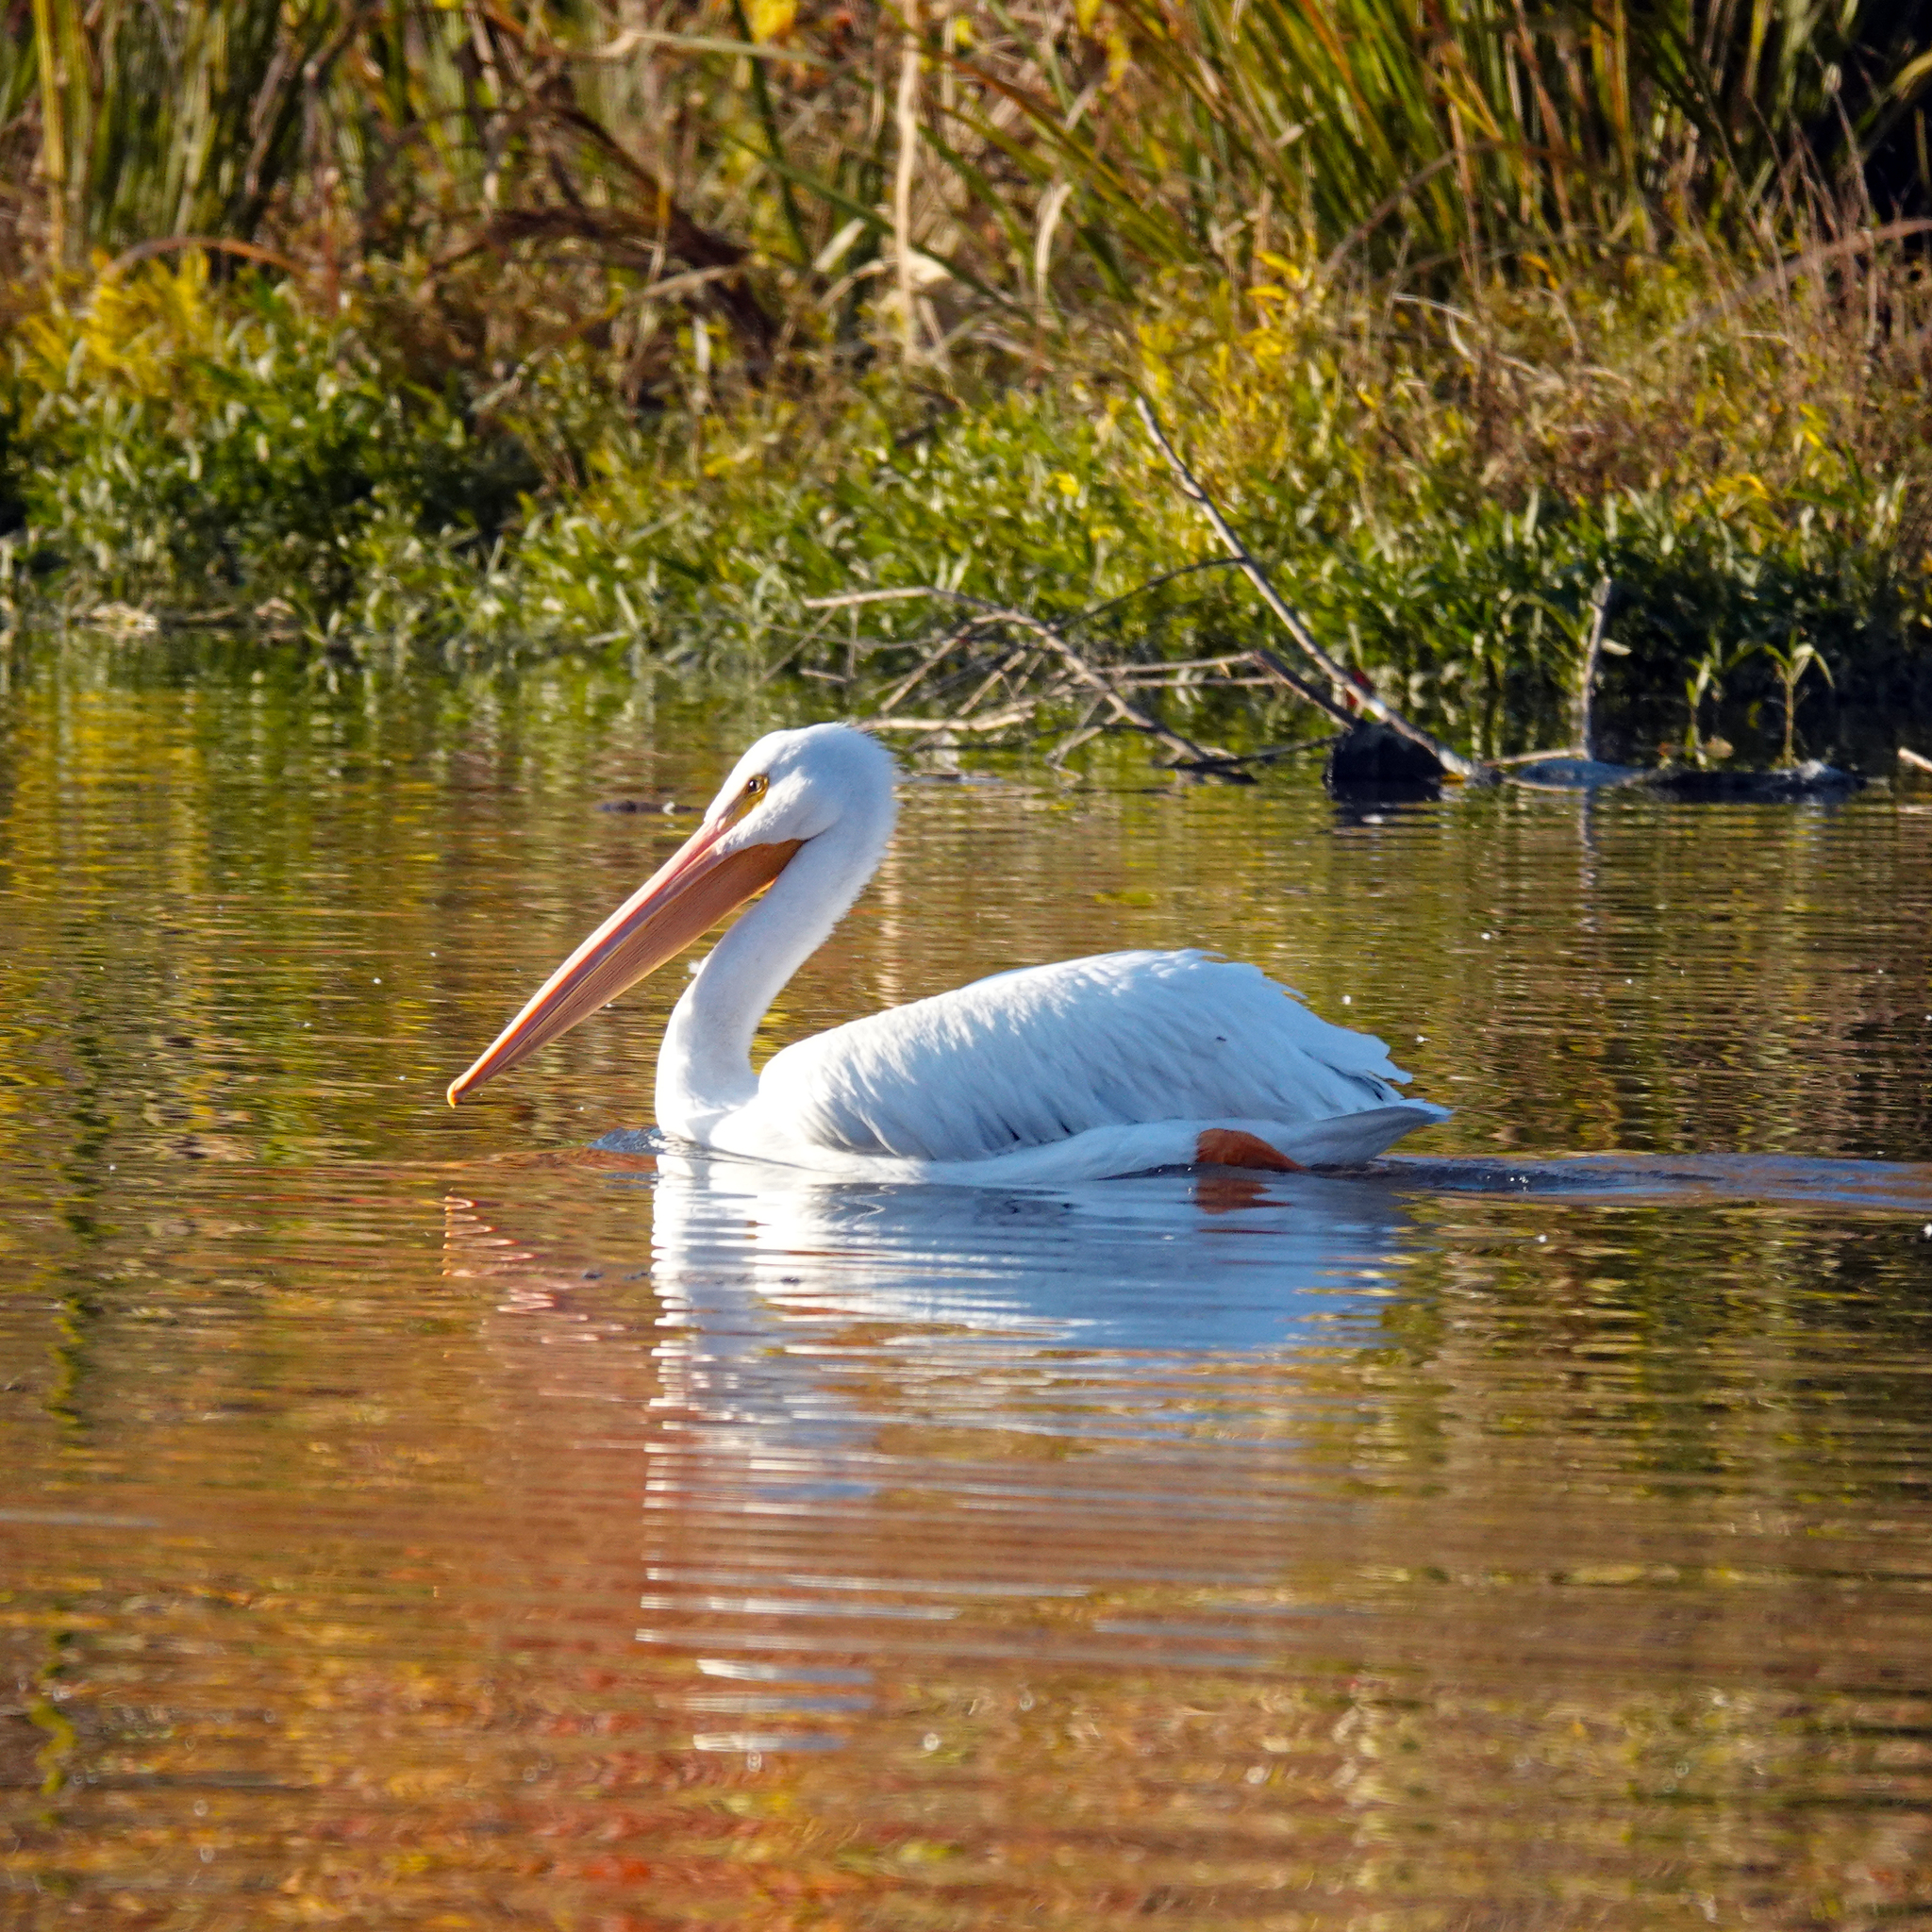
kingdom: Animalia
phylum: Chordata
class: Aves
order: Pelecaniformes
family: Pelecanidae
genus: Pelecanus
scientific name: Pelecanus erythrorhynchos
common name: American white pelican
